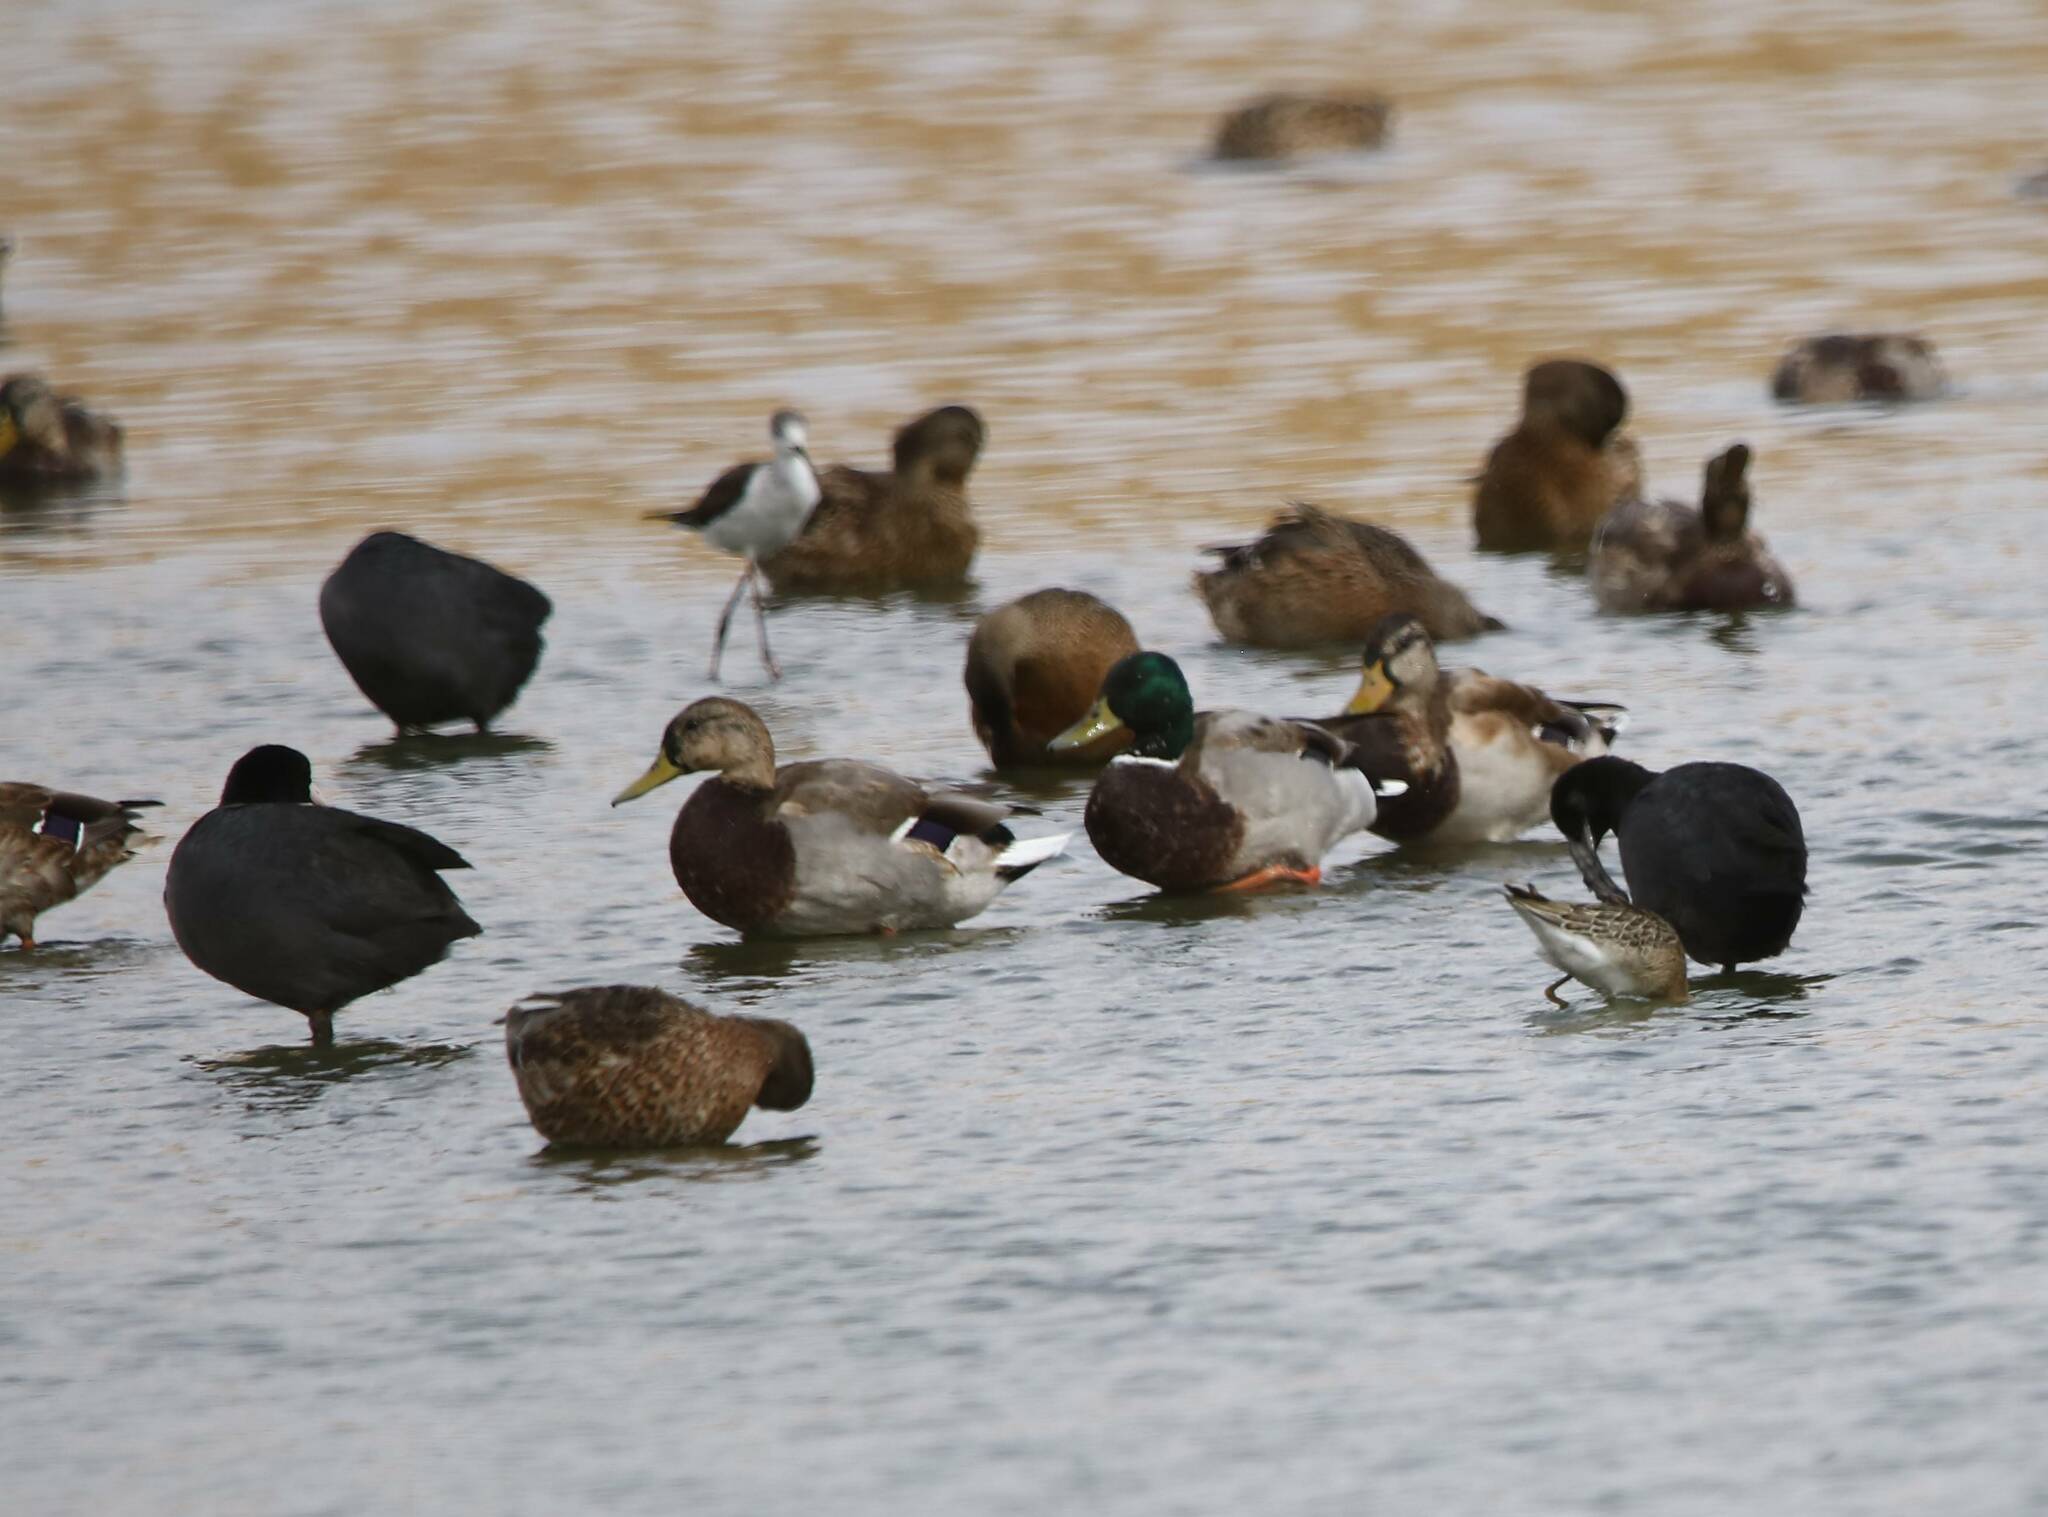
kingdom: Animalia
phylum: Chordata
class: Aves
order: Anseriformes
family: Anatidae
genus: Anas
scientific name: Anas platyrhynchos
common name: Mallard
